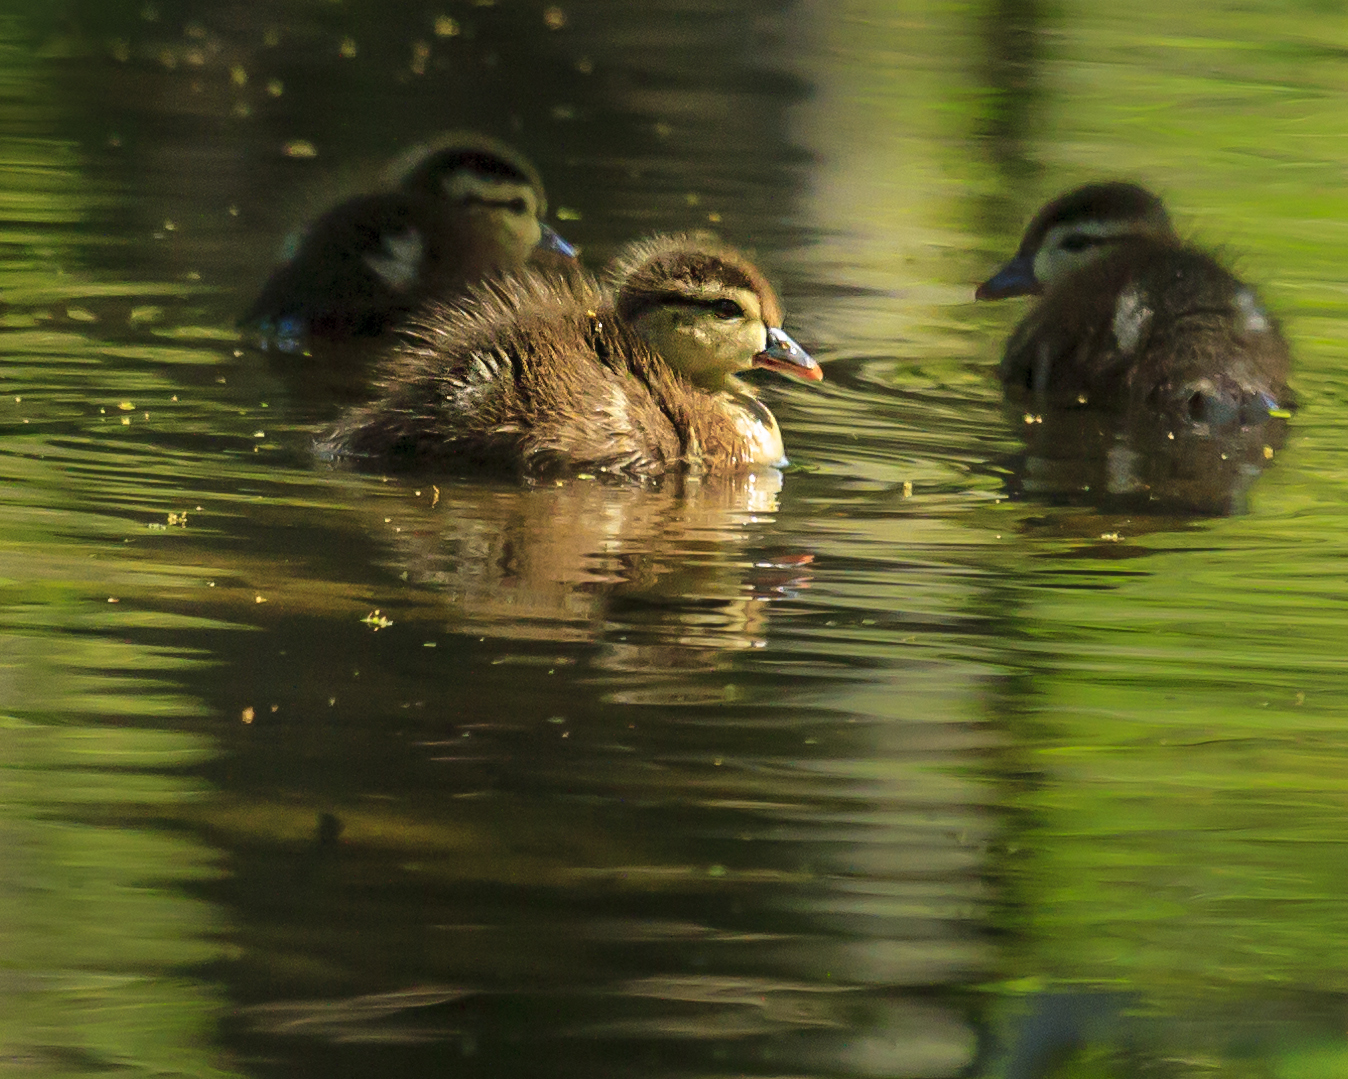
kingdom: Animalia
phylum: Chordata
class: Aves
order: Anseriformes
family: Anatidae
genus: Aix
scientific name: Aix sponsa
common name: Wood duck
